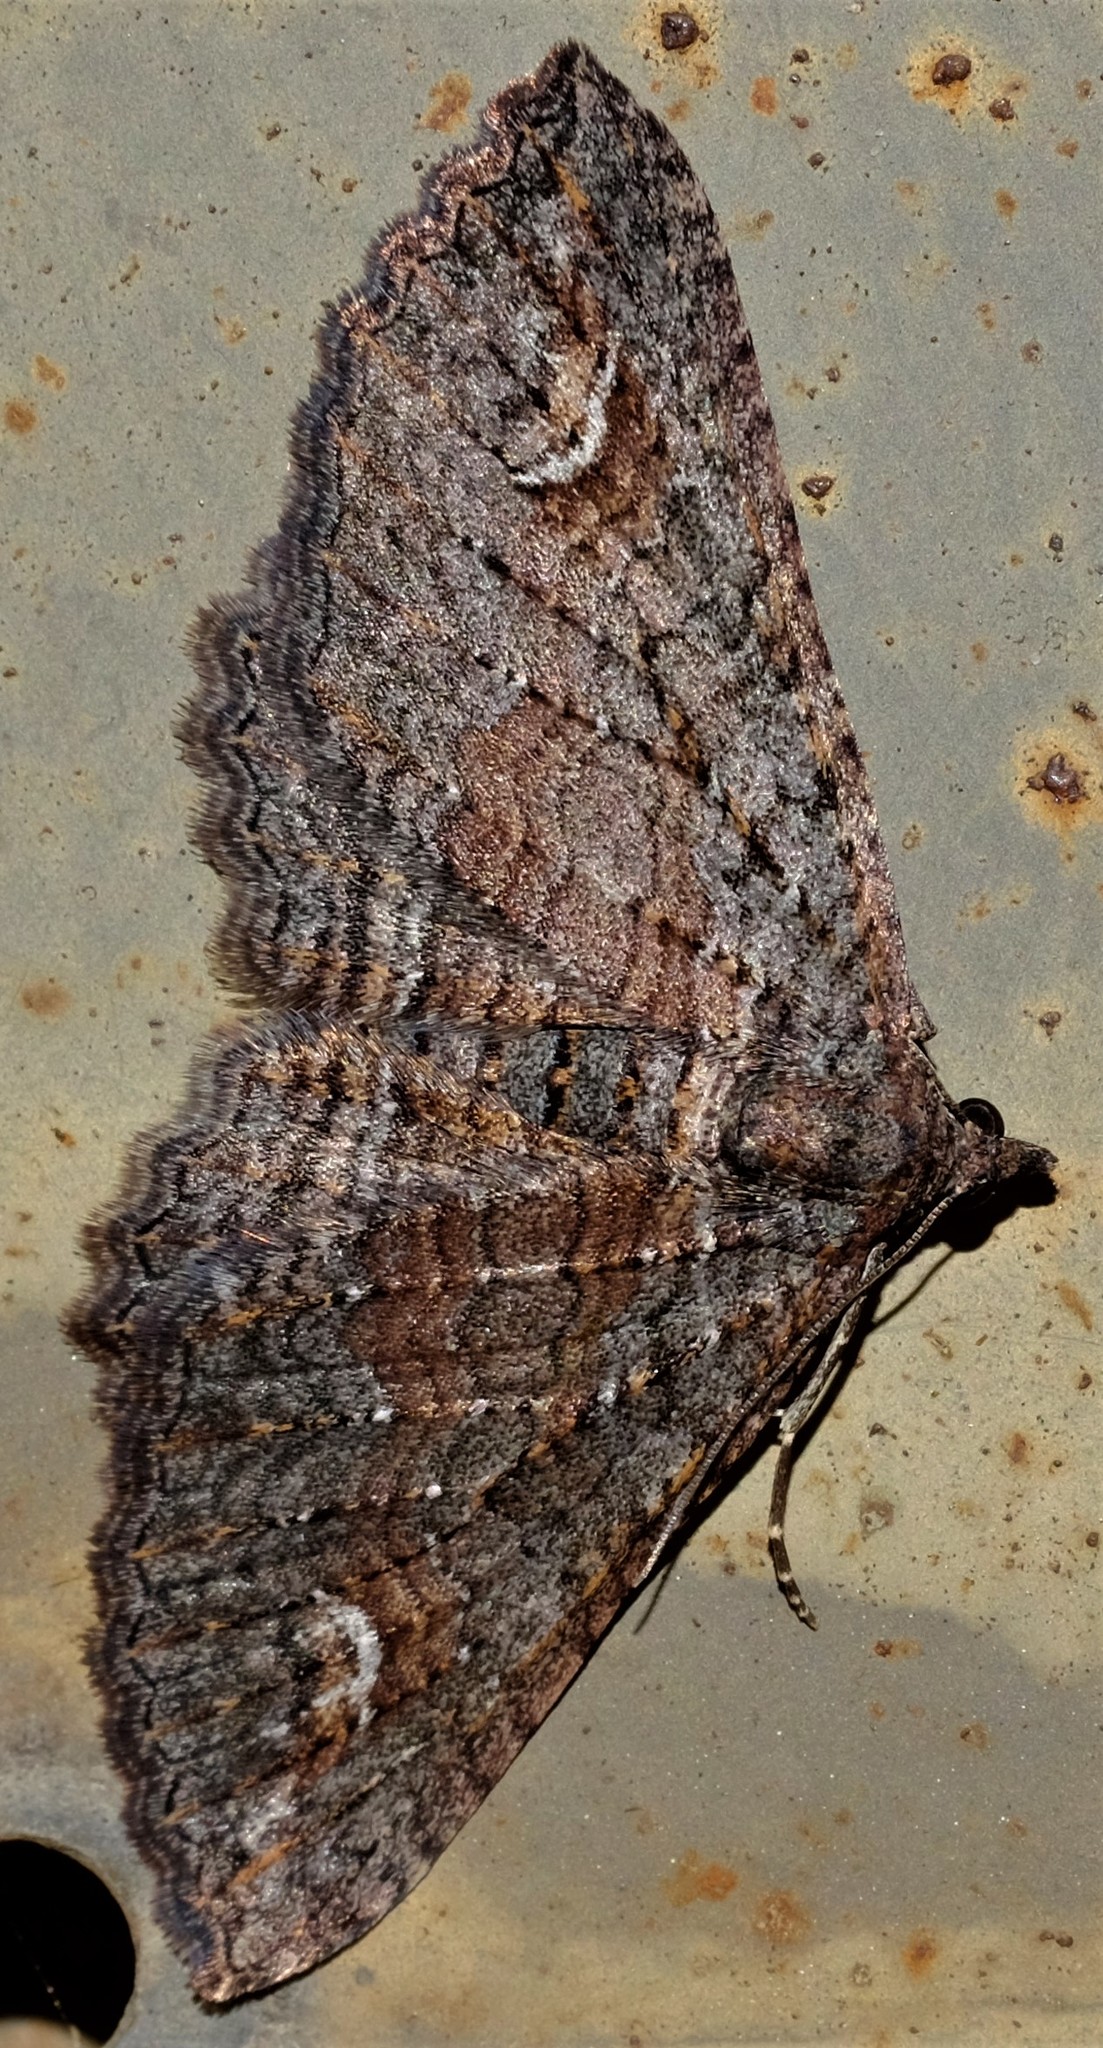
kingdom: Animalia
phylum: Arthropoda
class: Insecta
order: Lepidoptera
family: Geometridae
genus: Eupithecia
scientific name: Eupithecia Eucymatoge scotodes
